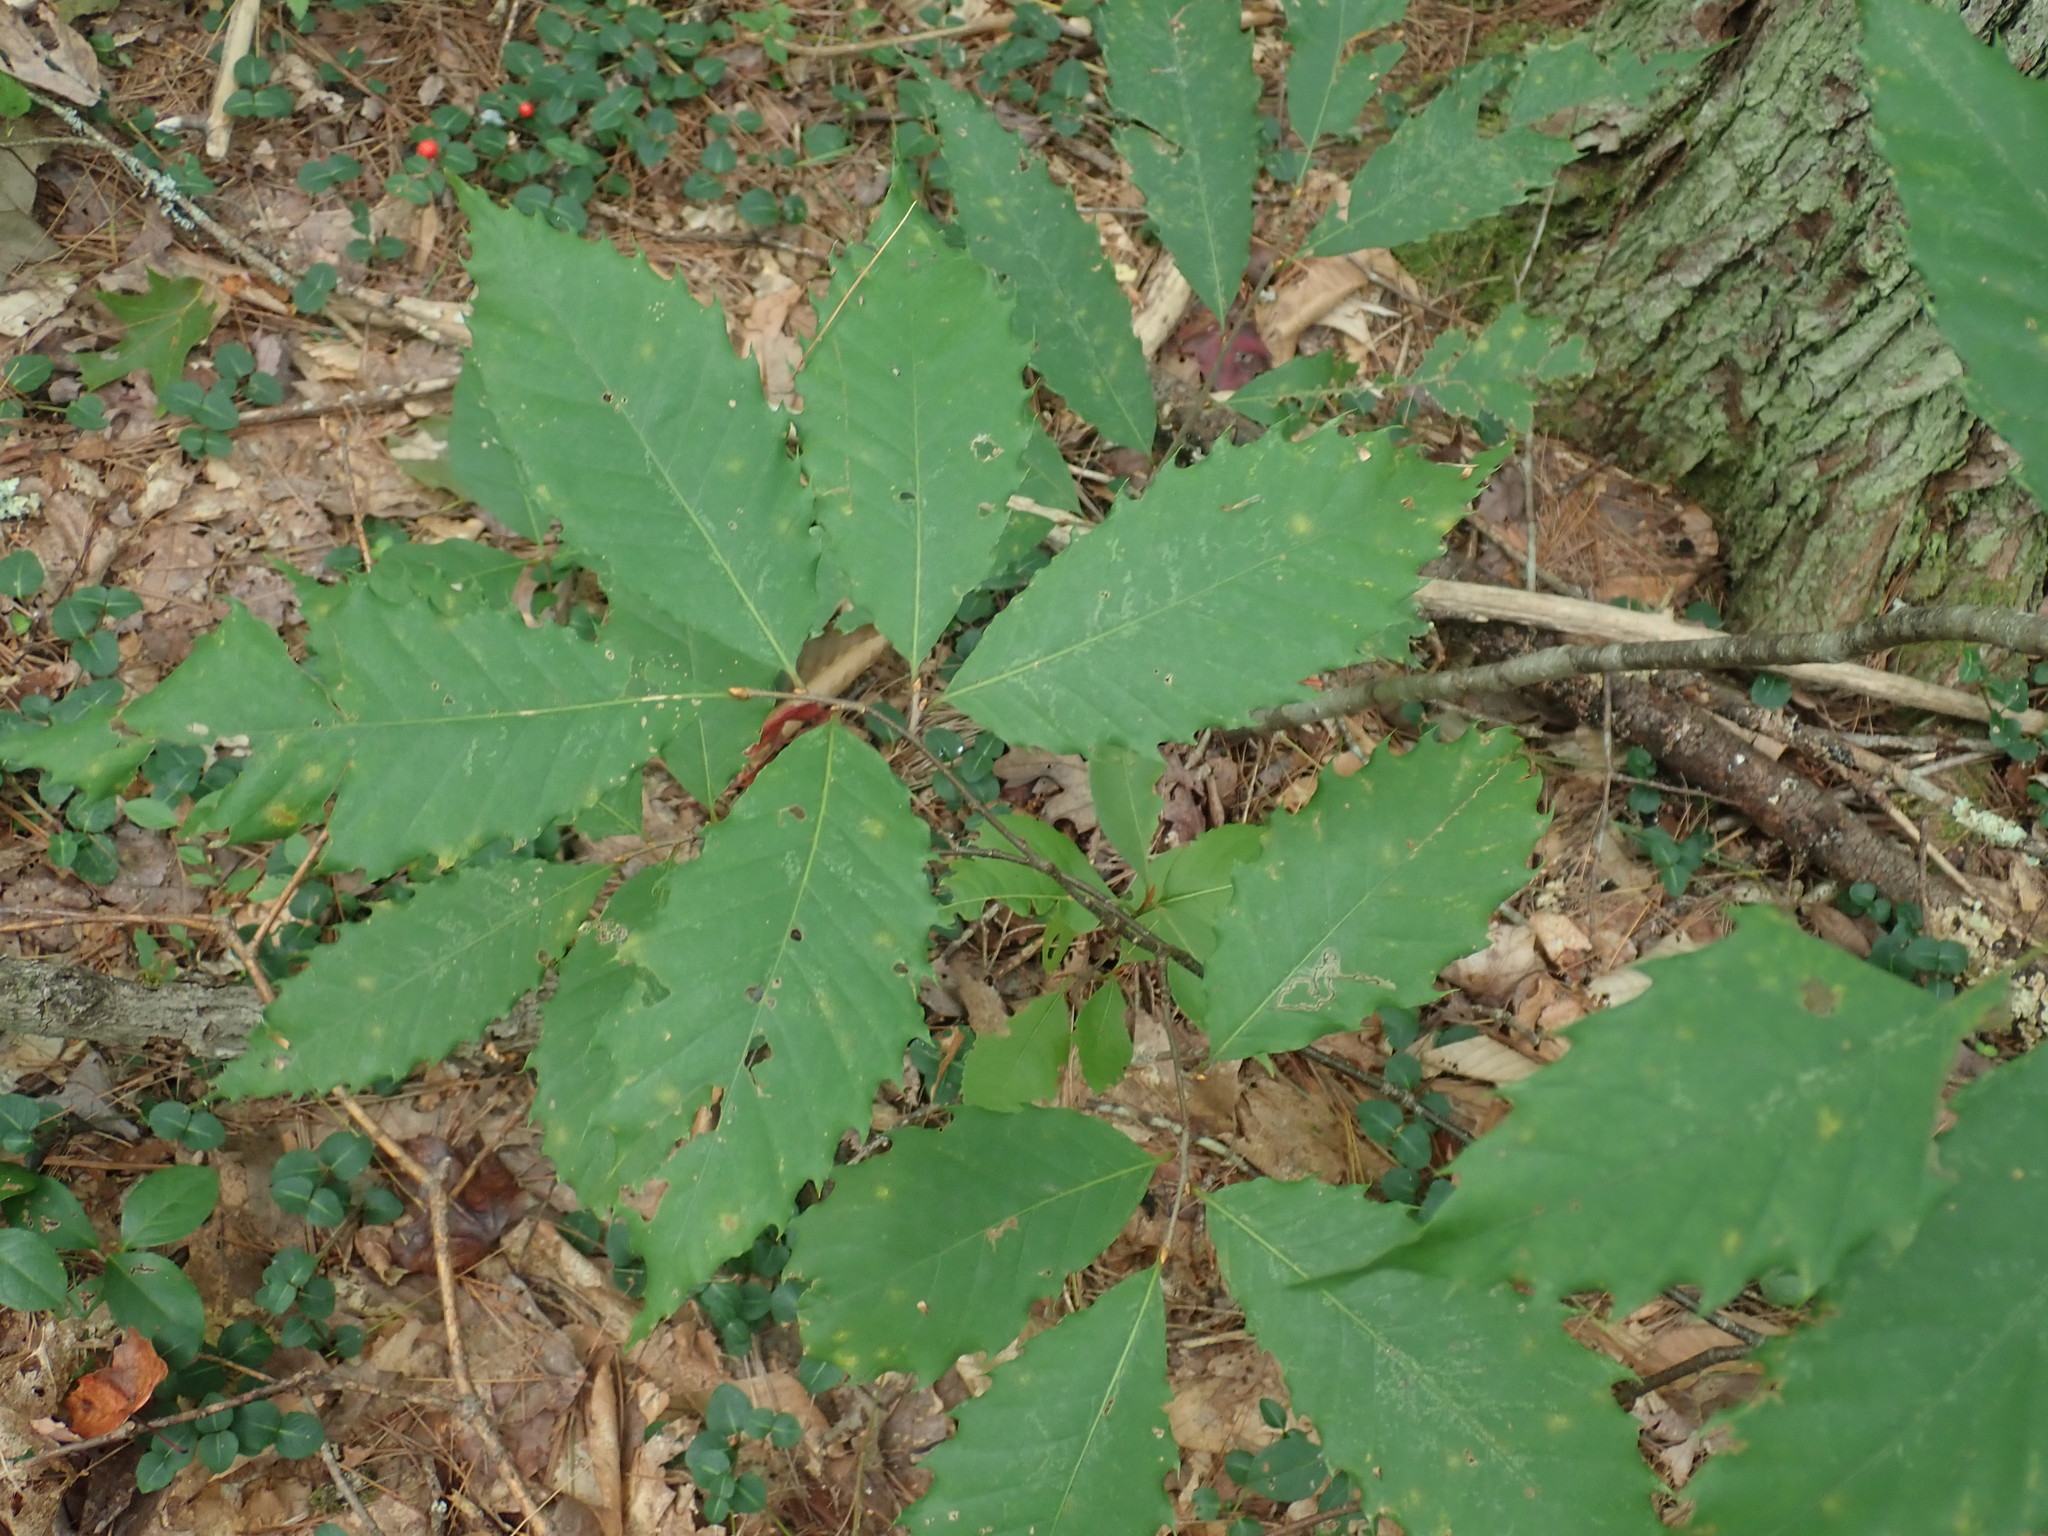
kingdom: Plantae
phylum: Tracheophyta
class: Magnoliopsida
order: Fagales
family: Fagaceae
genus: Castanea
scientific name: Castanea dentata
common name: American chestnut
